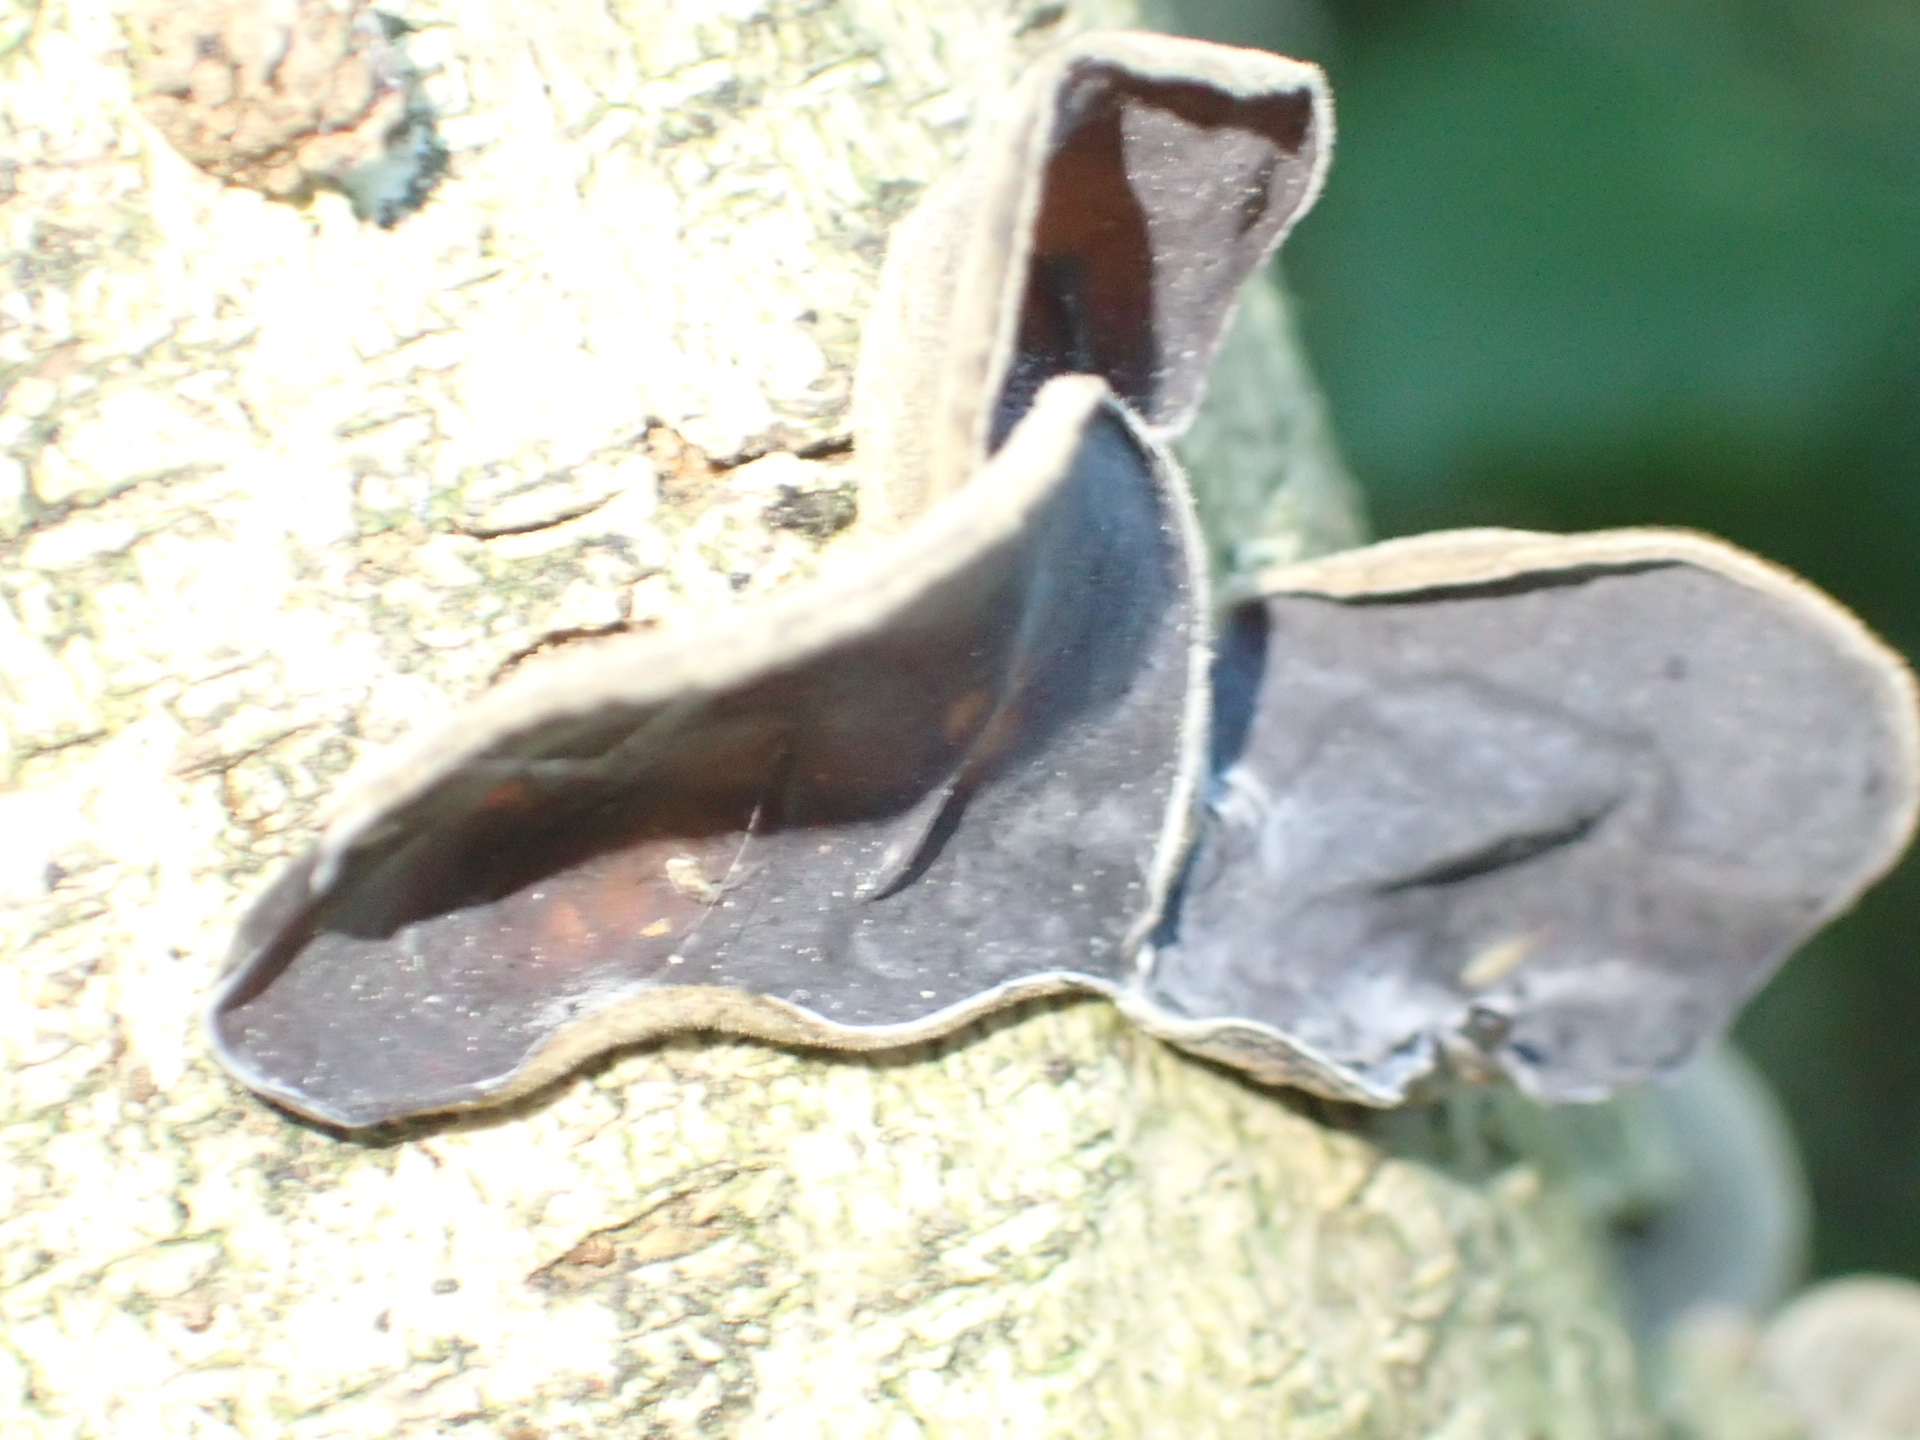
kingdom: Fungi
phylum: Basidiomycota
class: Agaricomycetes
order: Auriculariales
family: Auriculariaceae
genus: Auricularia
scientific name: Auricularia cornea
